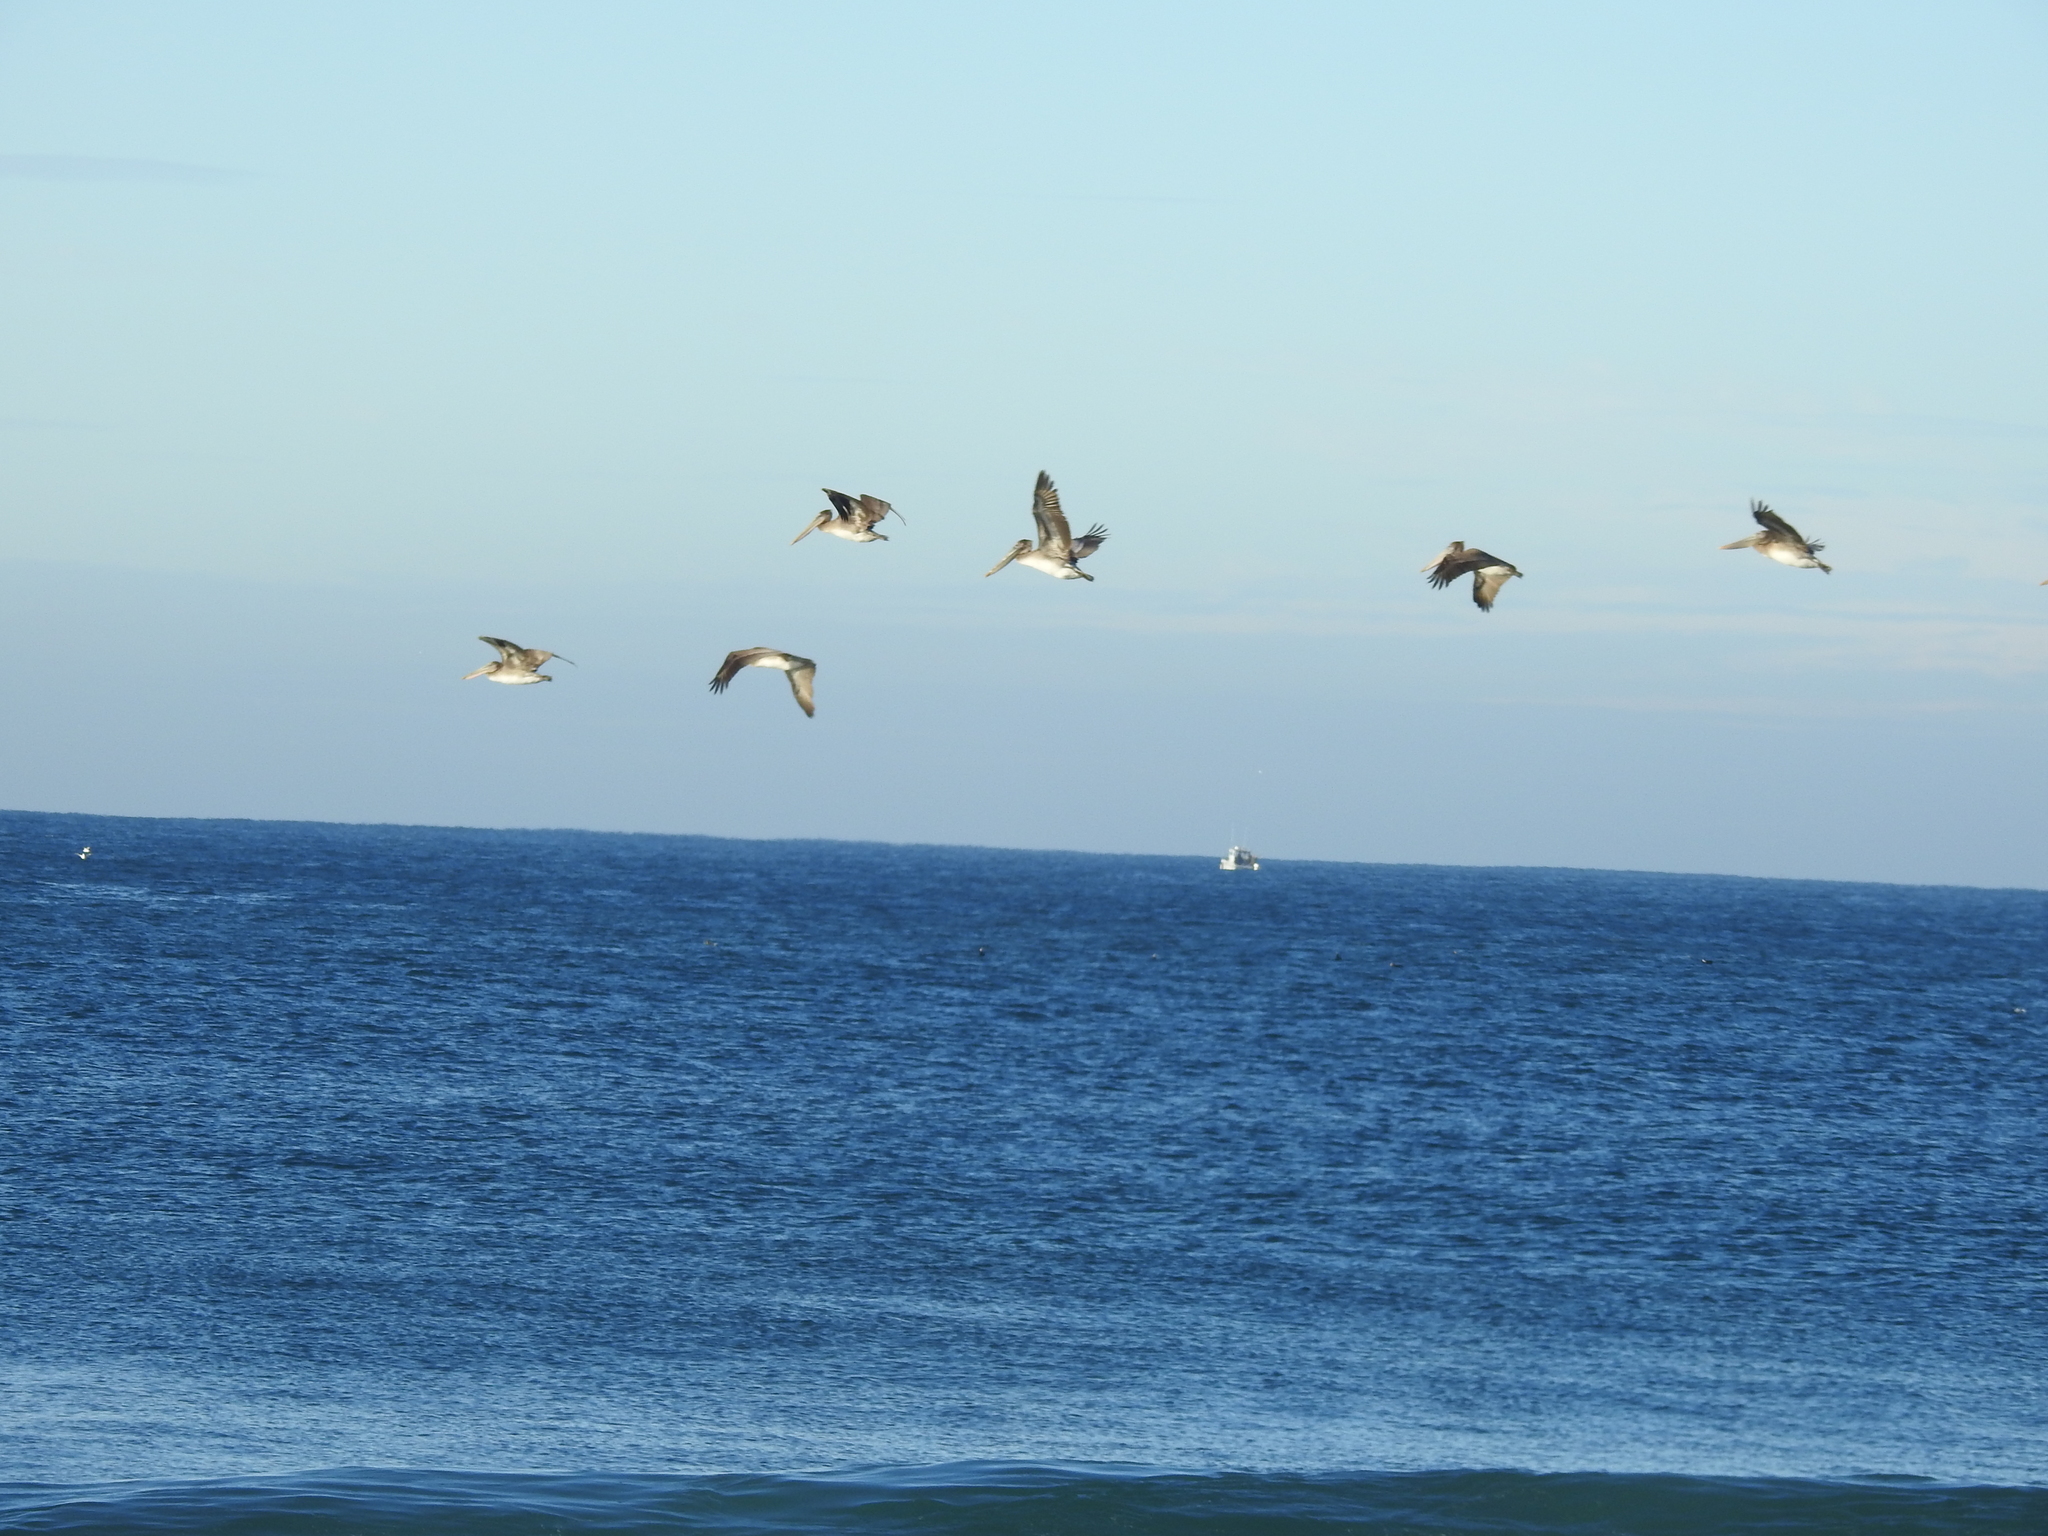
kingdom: Animalia
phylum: Chordata
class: Aves
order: Pelecaniformes
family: Pelecanidae
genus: Pelecanus
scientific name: Pelecanus occidentalis
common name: Brown pelican
